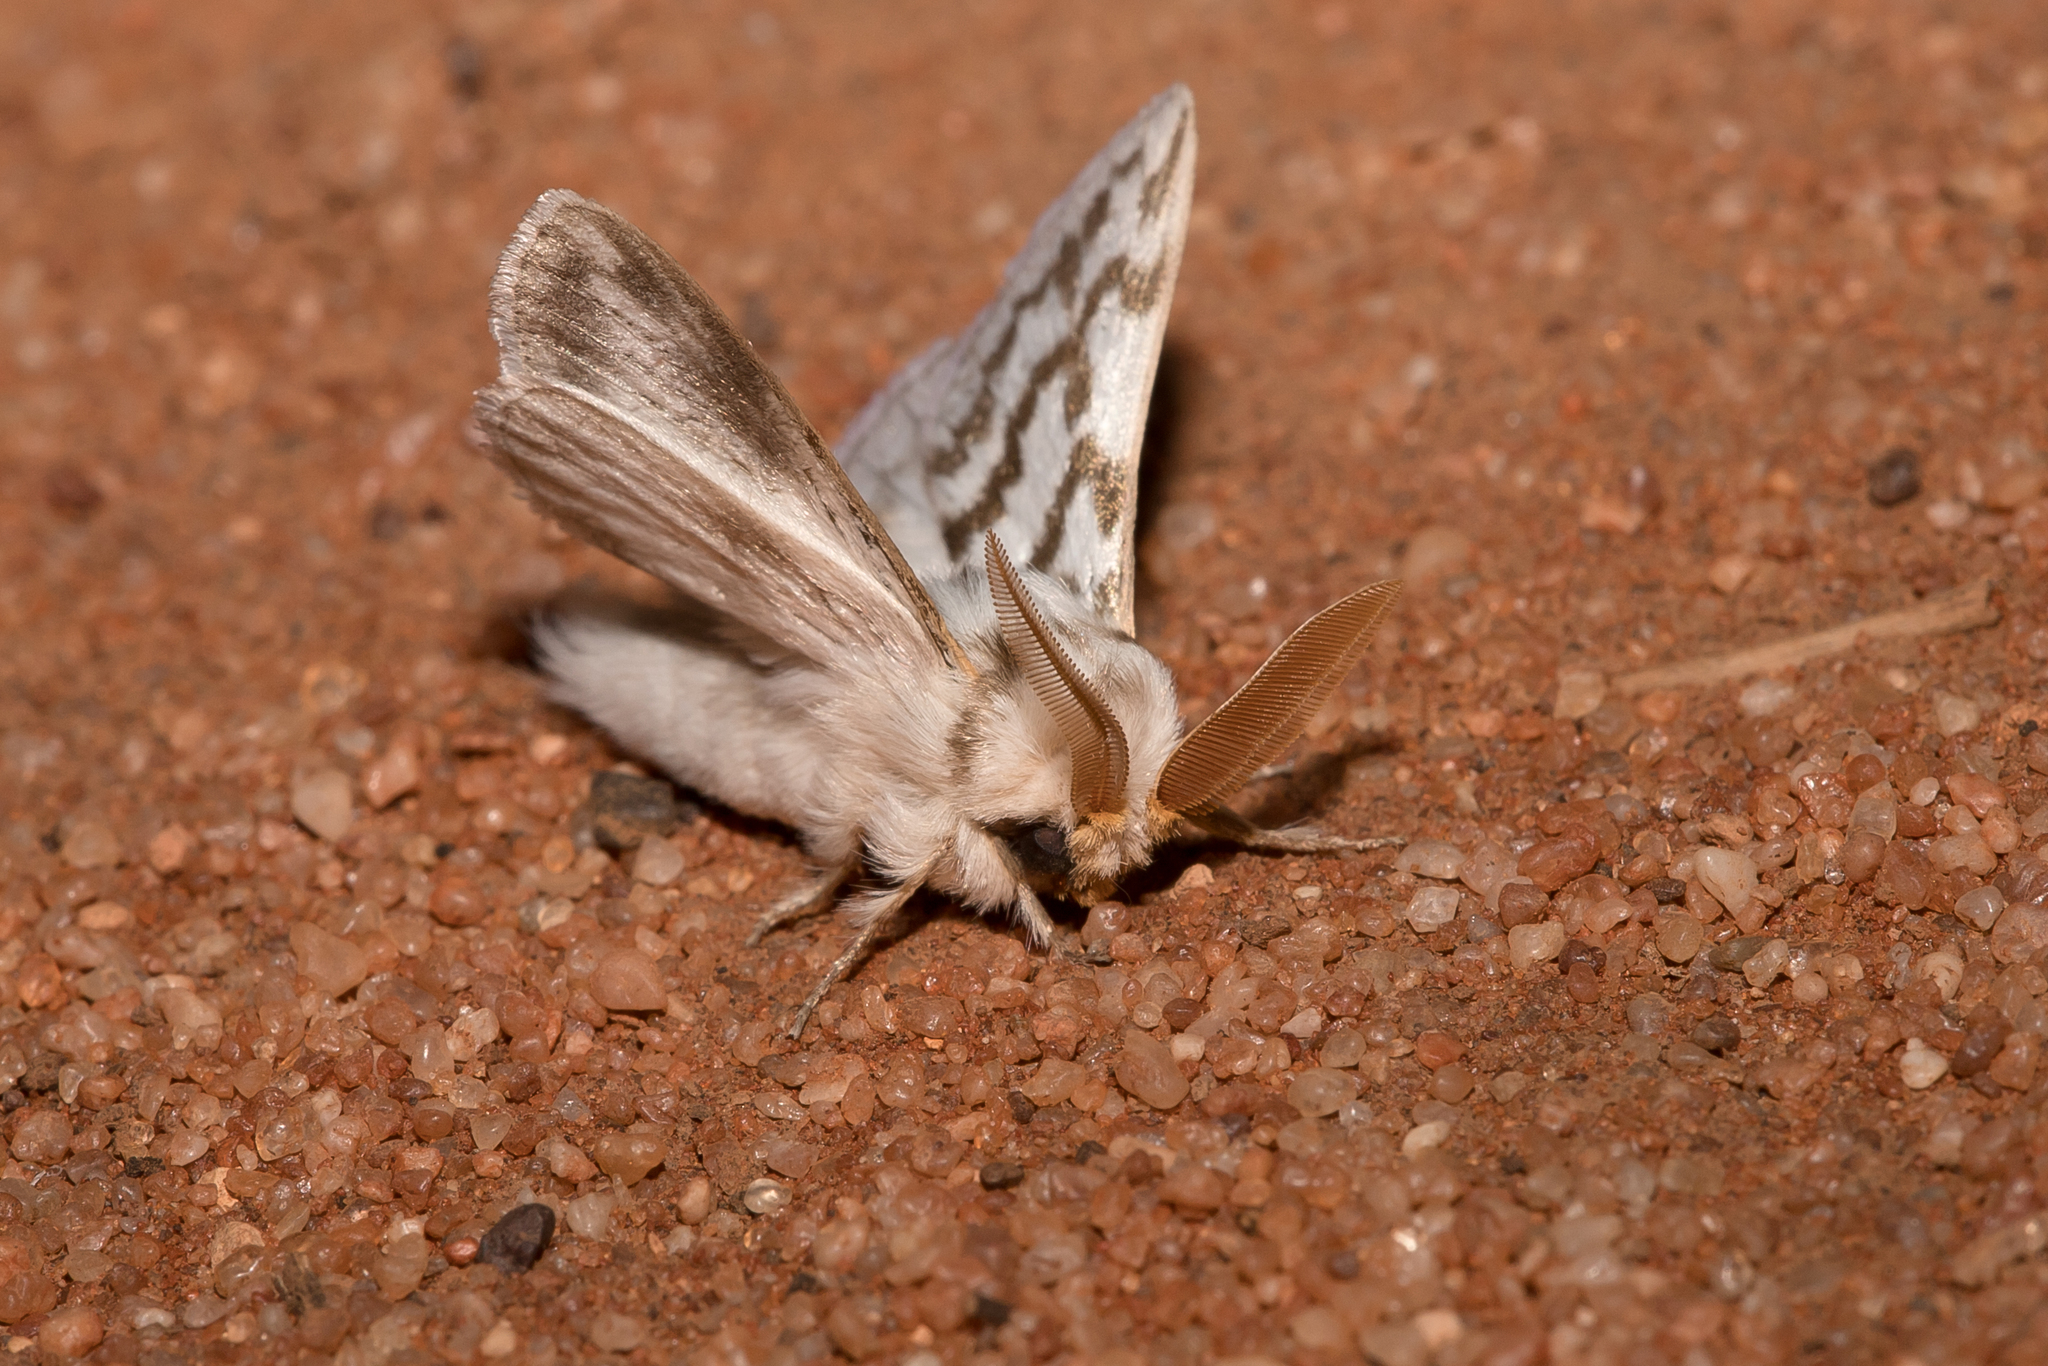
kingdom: Animalia
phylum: Arthropoda
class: Insecta
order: Lepidoptera
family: Lasiocampidae
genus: Pernattia
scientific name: Pernattia chlorophragma
